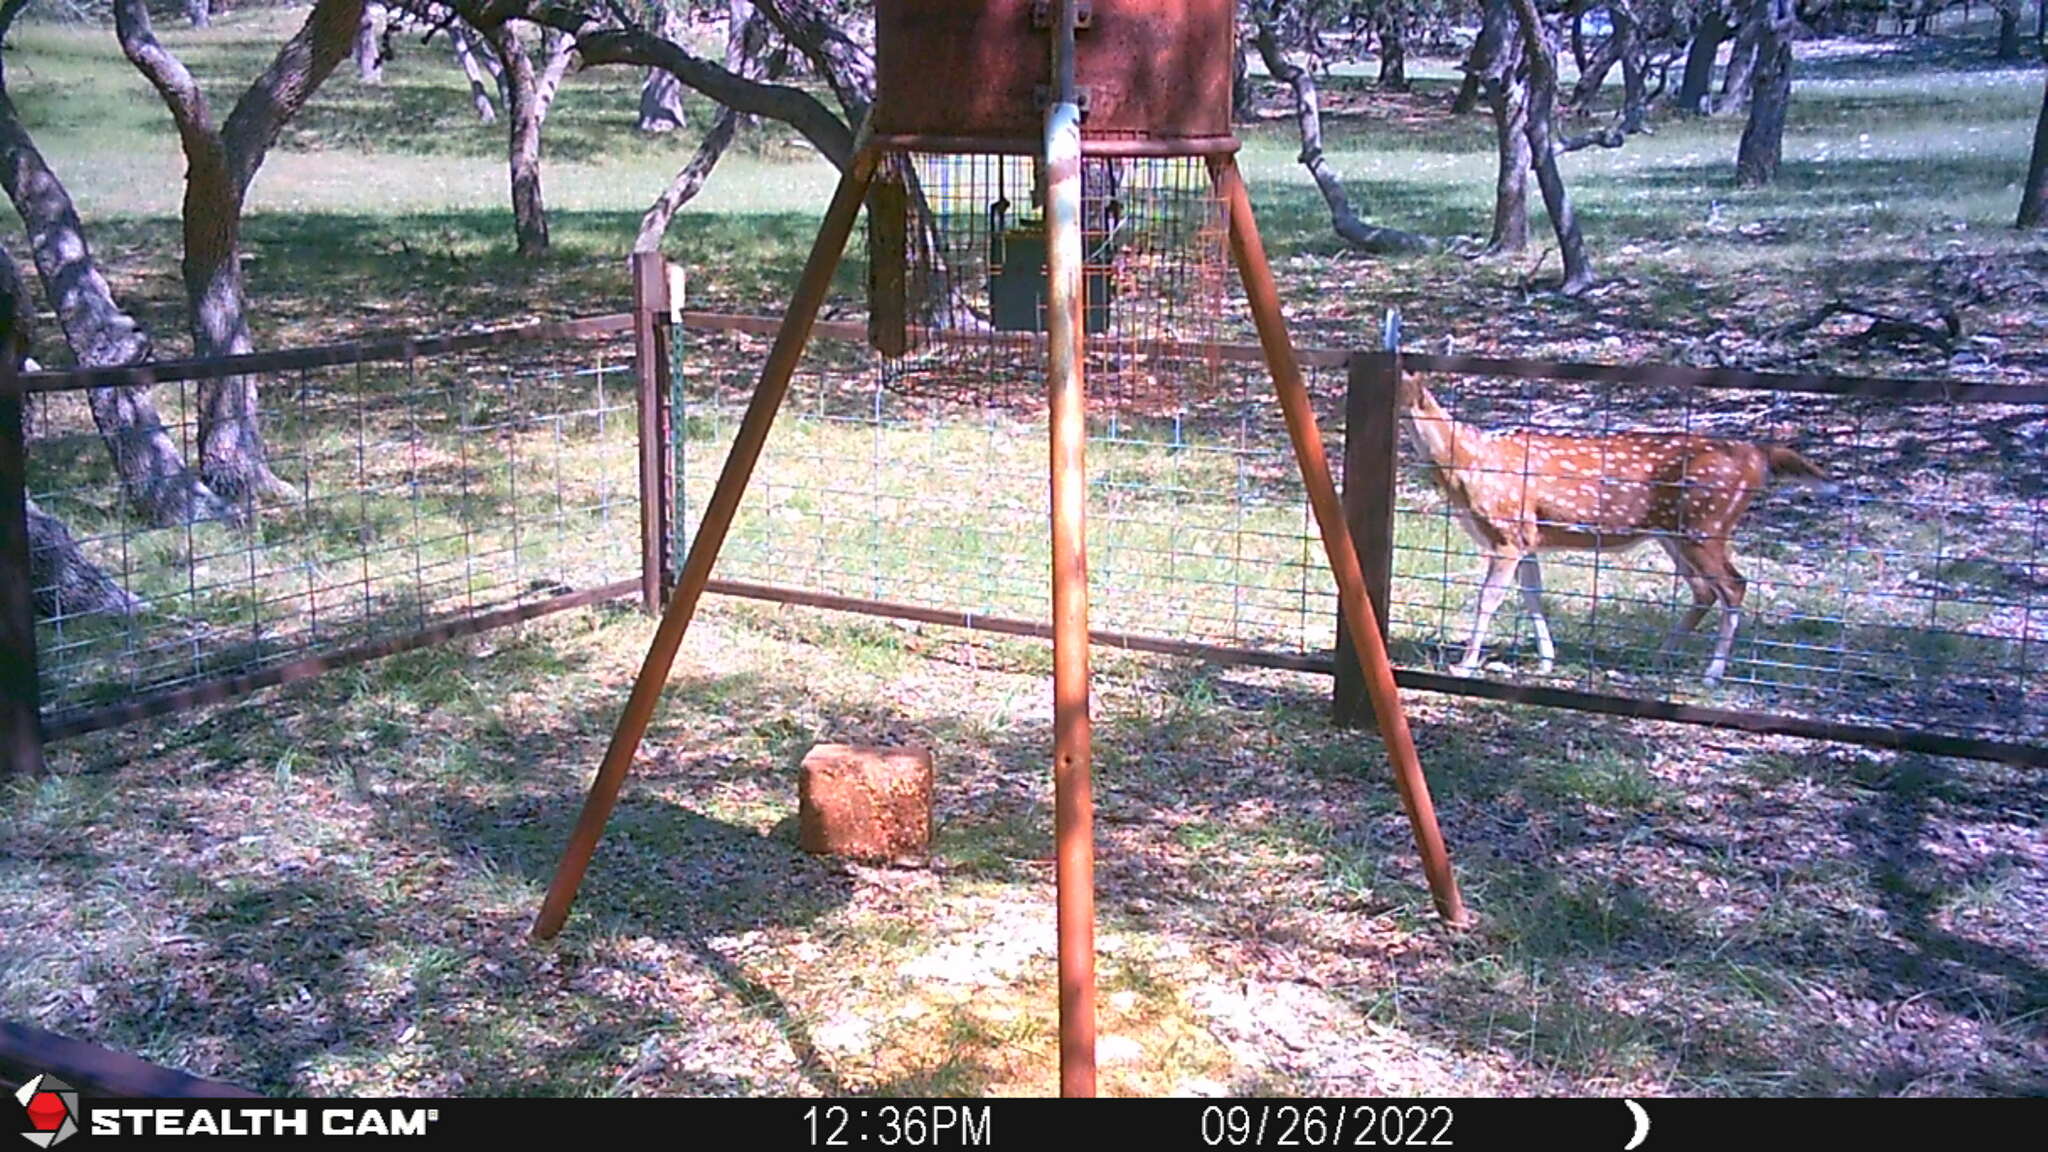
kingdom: Animalia
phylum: Chordata
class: Mammalia
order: Artiodactyla
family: Cervidae
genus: Axis
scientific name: Axis axis
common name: Chital
